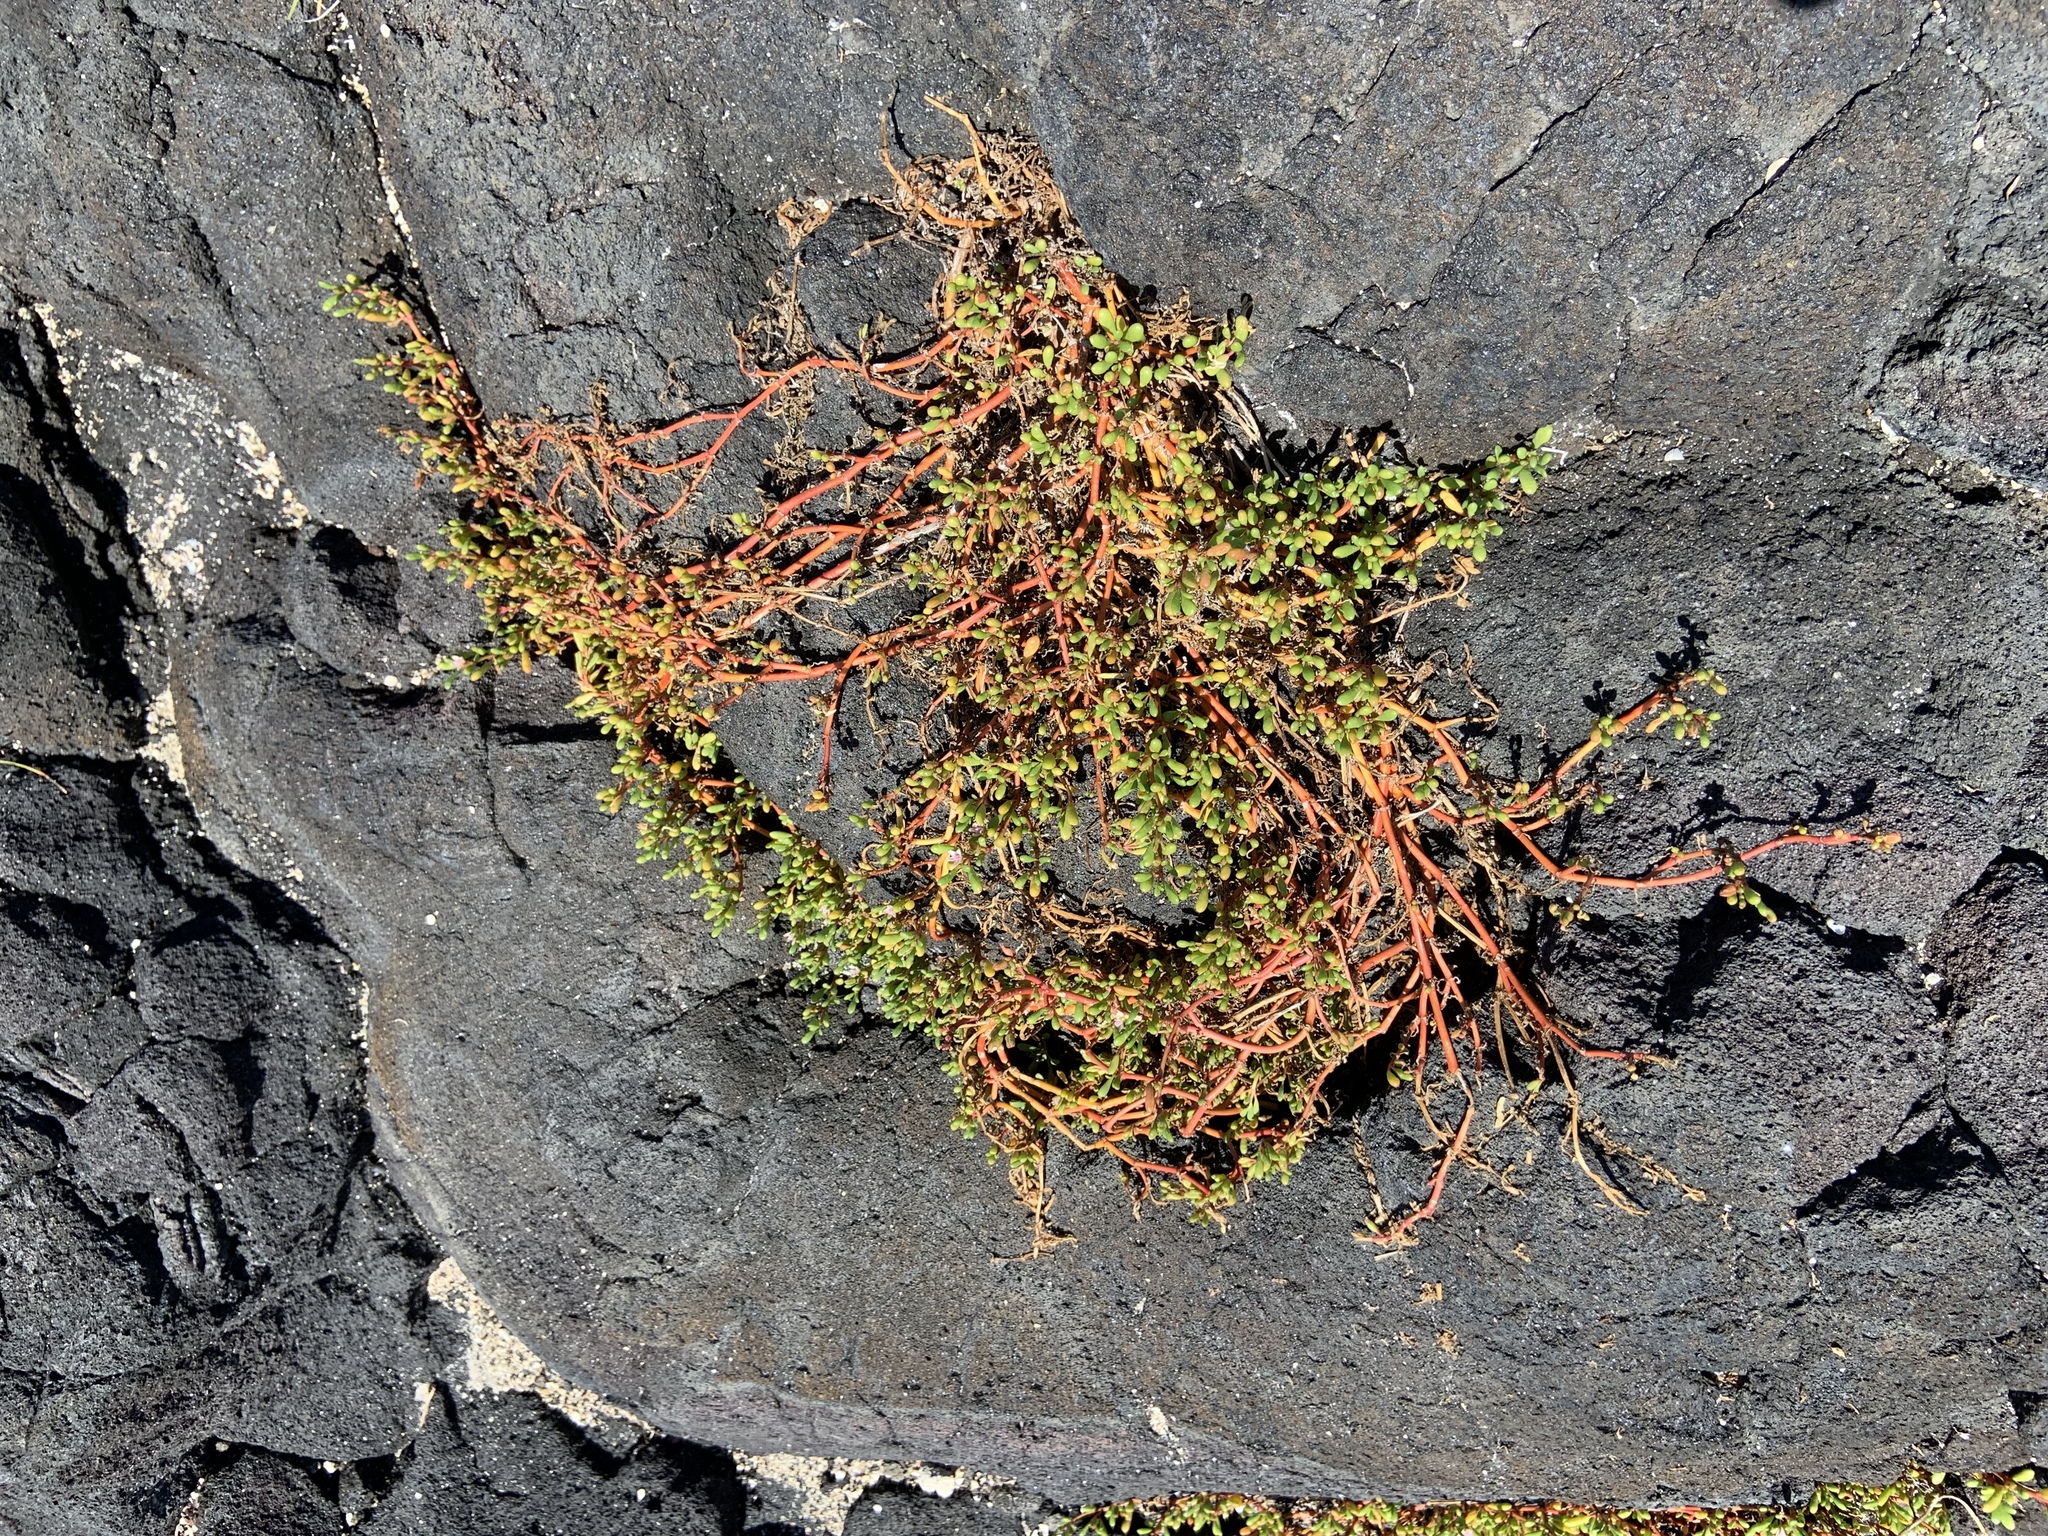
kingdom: Plantae
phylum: Tracheophyta
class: Magnoliopsida
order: Caryophyllales
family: Aizoaceae
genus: Sesuvium
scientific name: Sesuvium portulacastrum
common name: Sea-purslane
